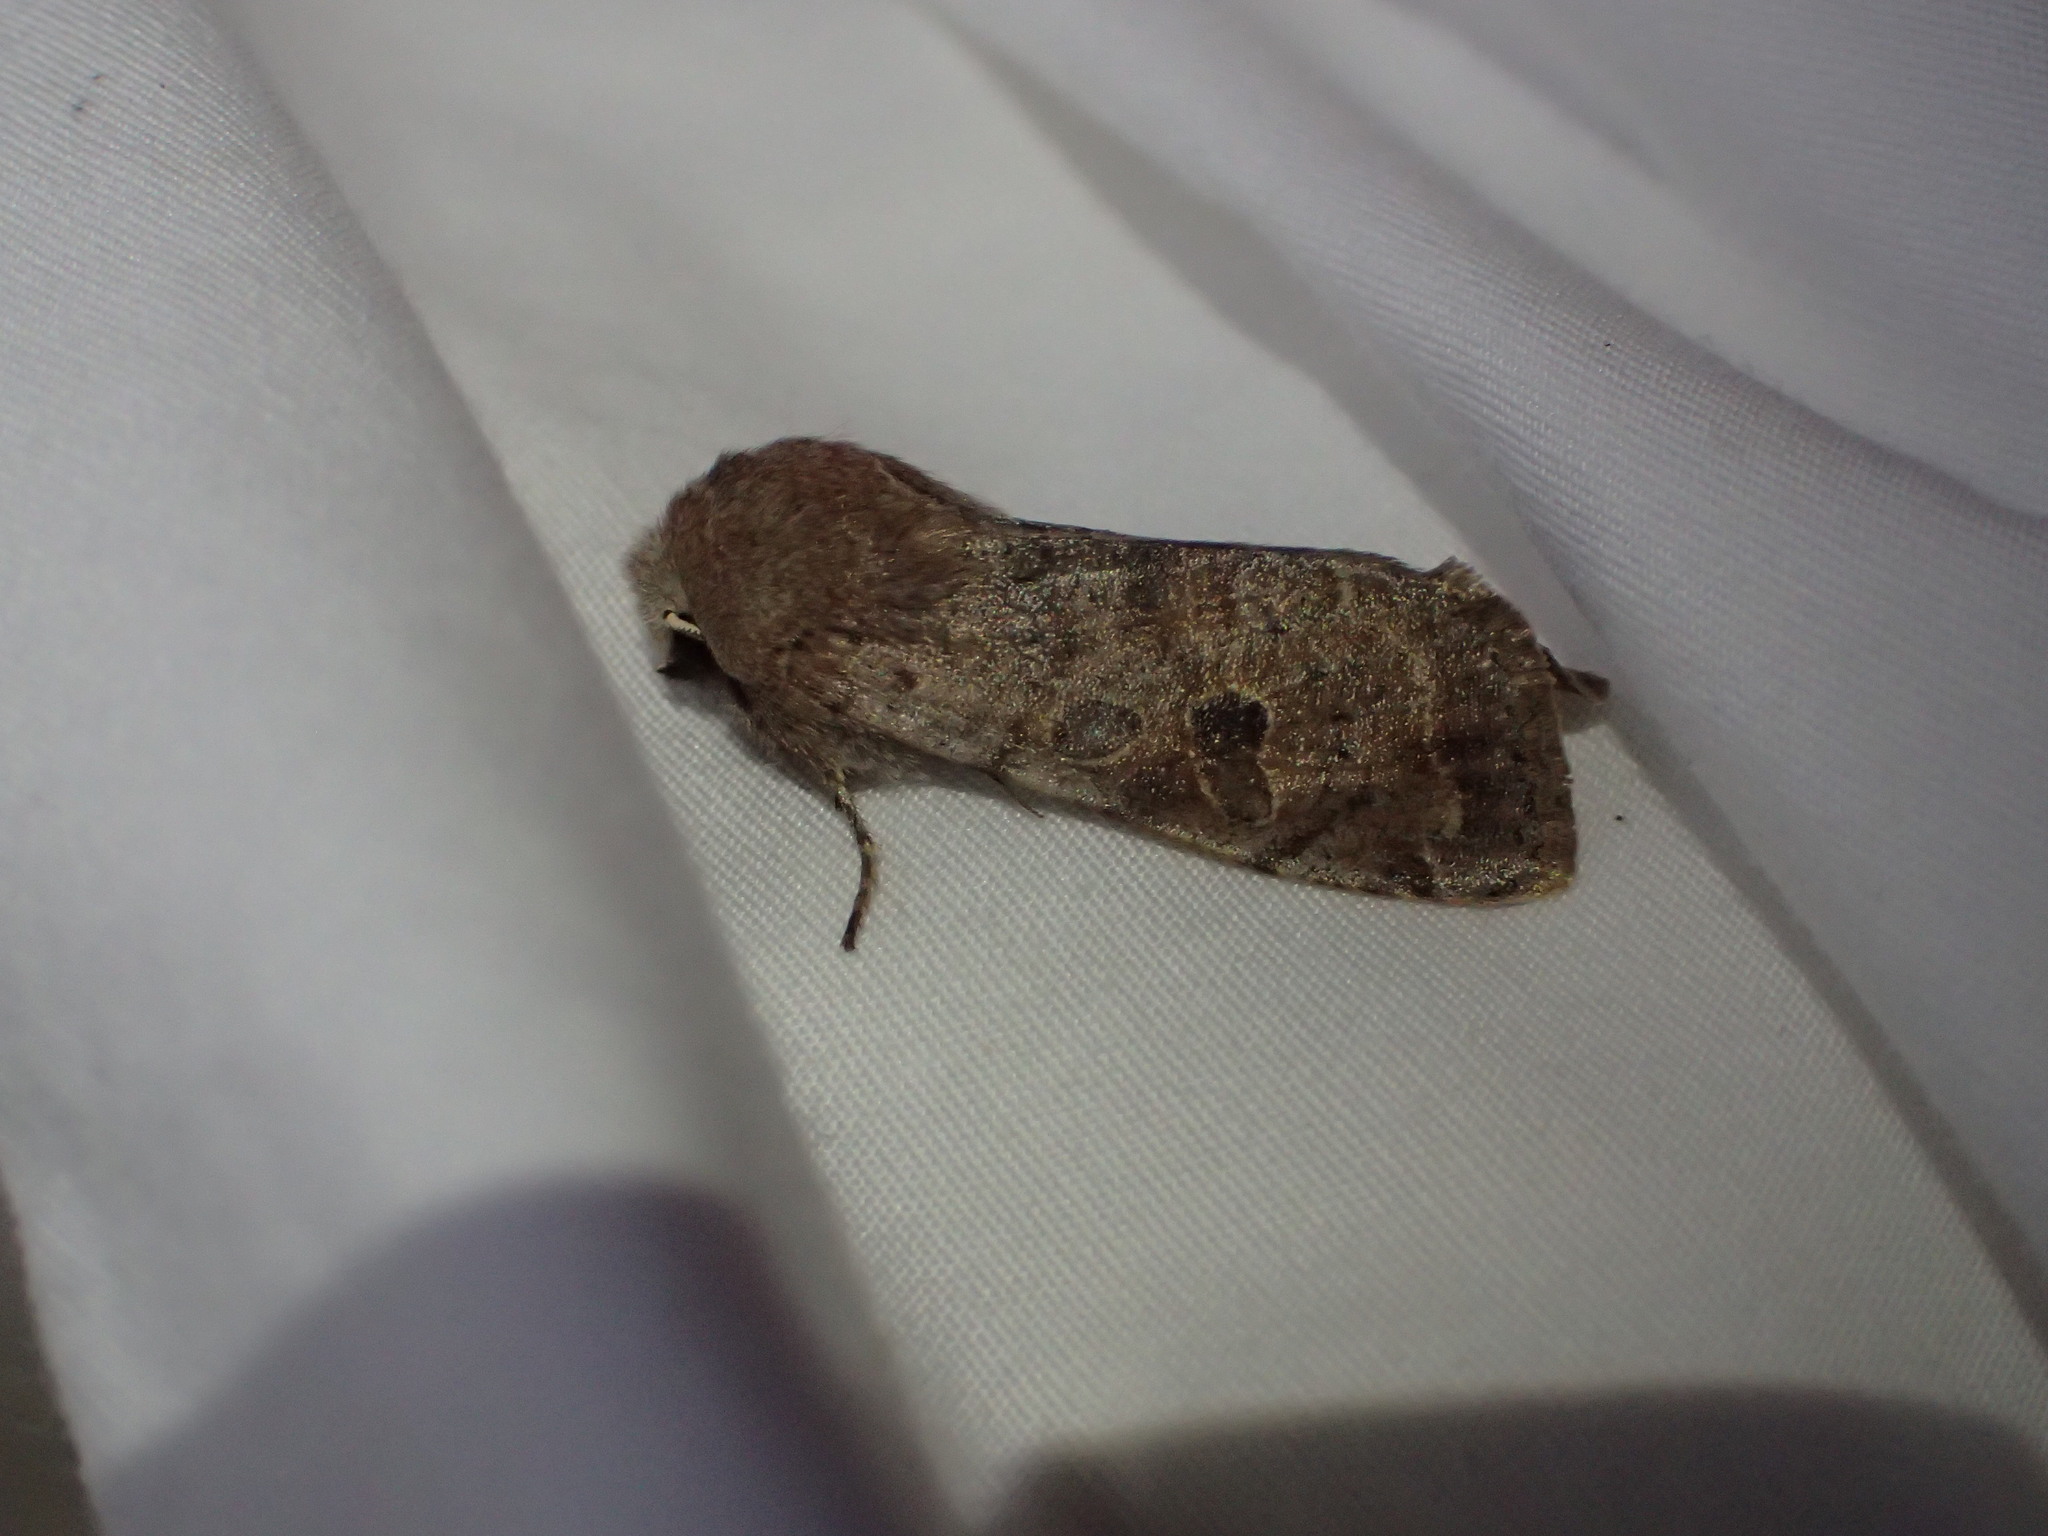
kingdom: Animalia
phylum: Arthropoda
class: Insecta
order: Lepidoptera
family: Noctuidae
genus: Orthosia
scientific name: Orthosia hibisci
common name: Green fruitworm
